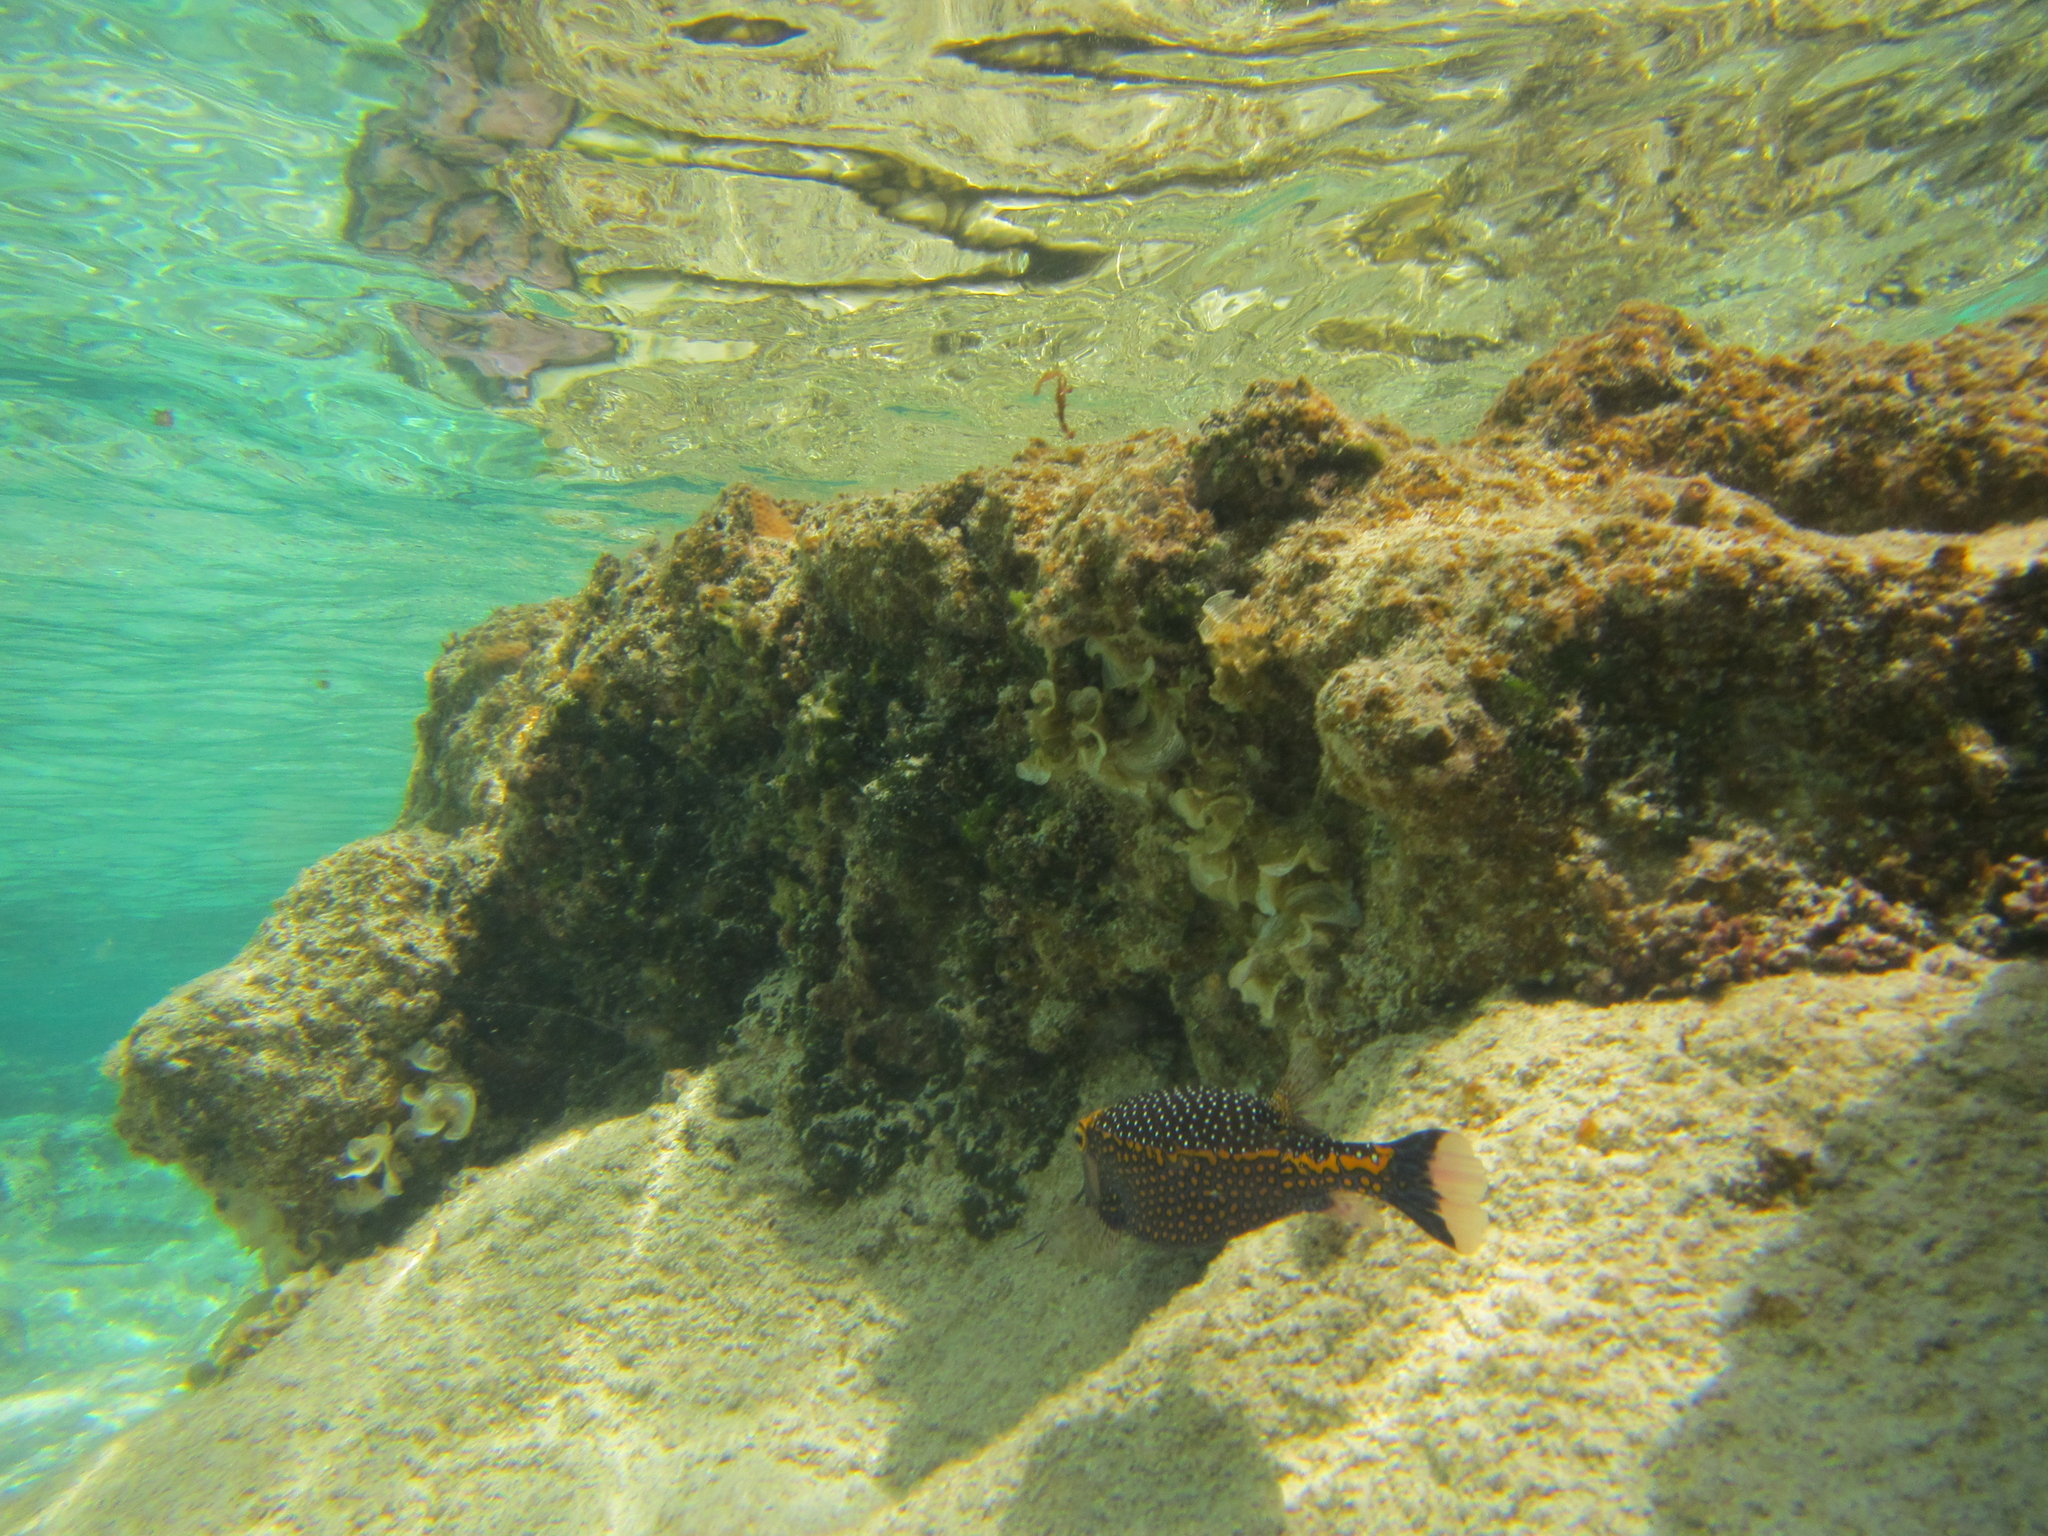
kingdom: Animalia
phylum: Chordata
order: Tetraodontiformes
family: Ostraciidae
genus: Ostracion
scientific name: Ostracion meleagris
